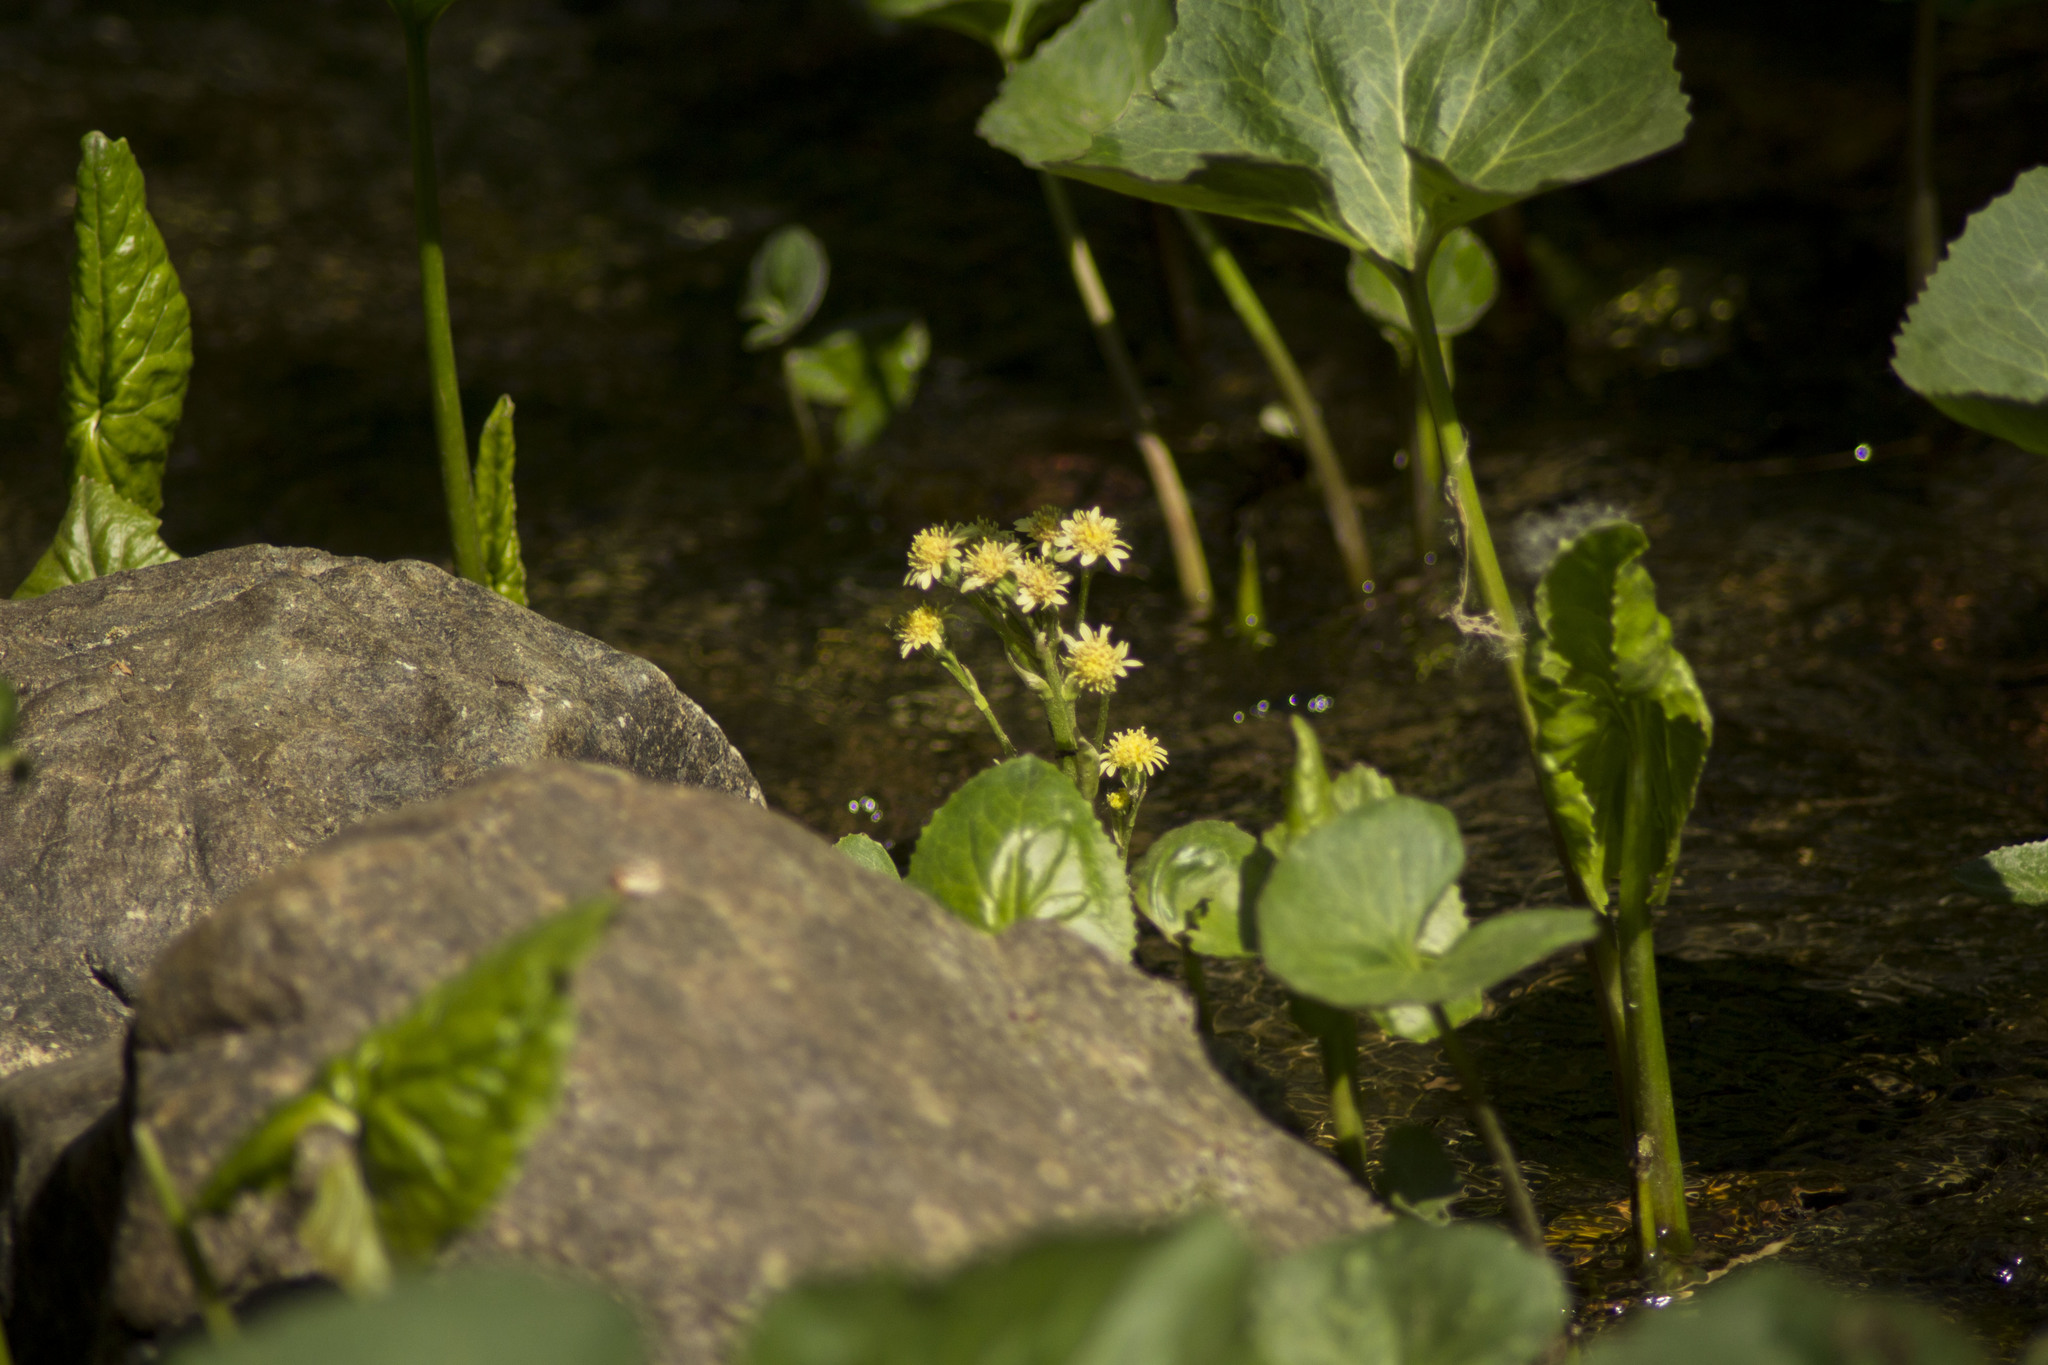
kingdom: Plantae
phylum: Tracheophyta
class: Magnoliopsida
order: Asterales
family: Asteraceae
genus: Petasites
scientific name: Petasites radiatus
